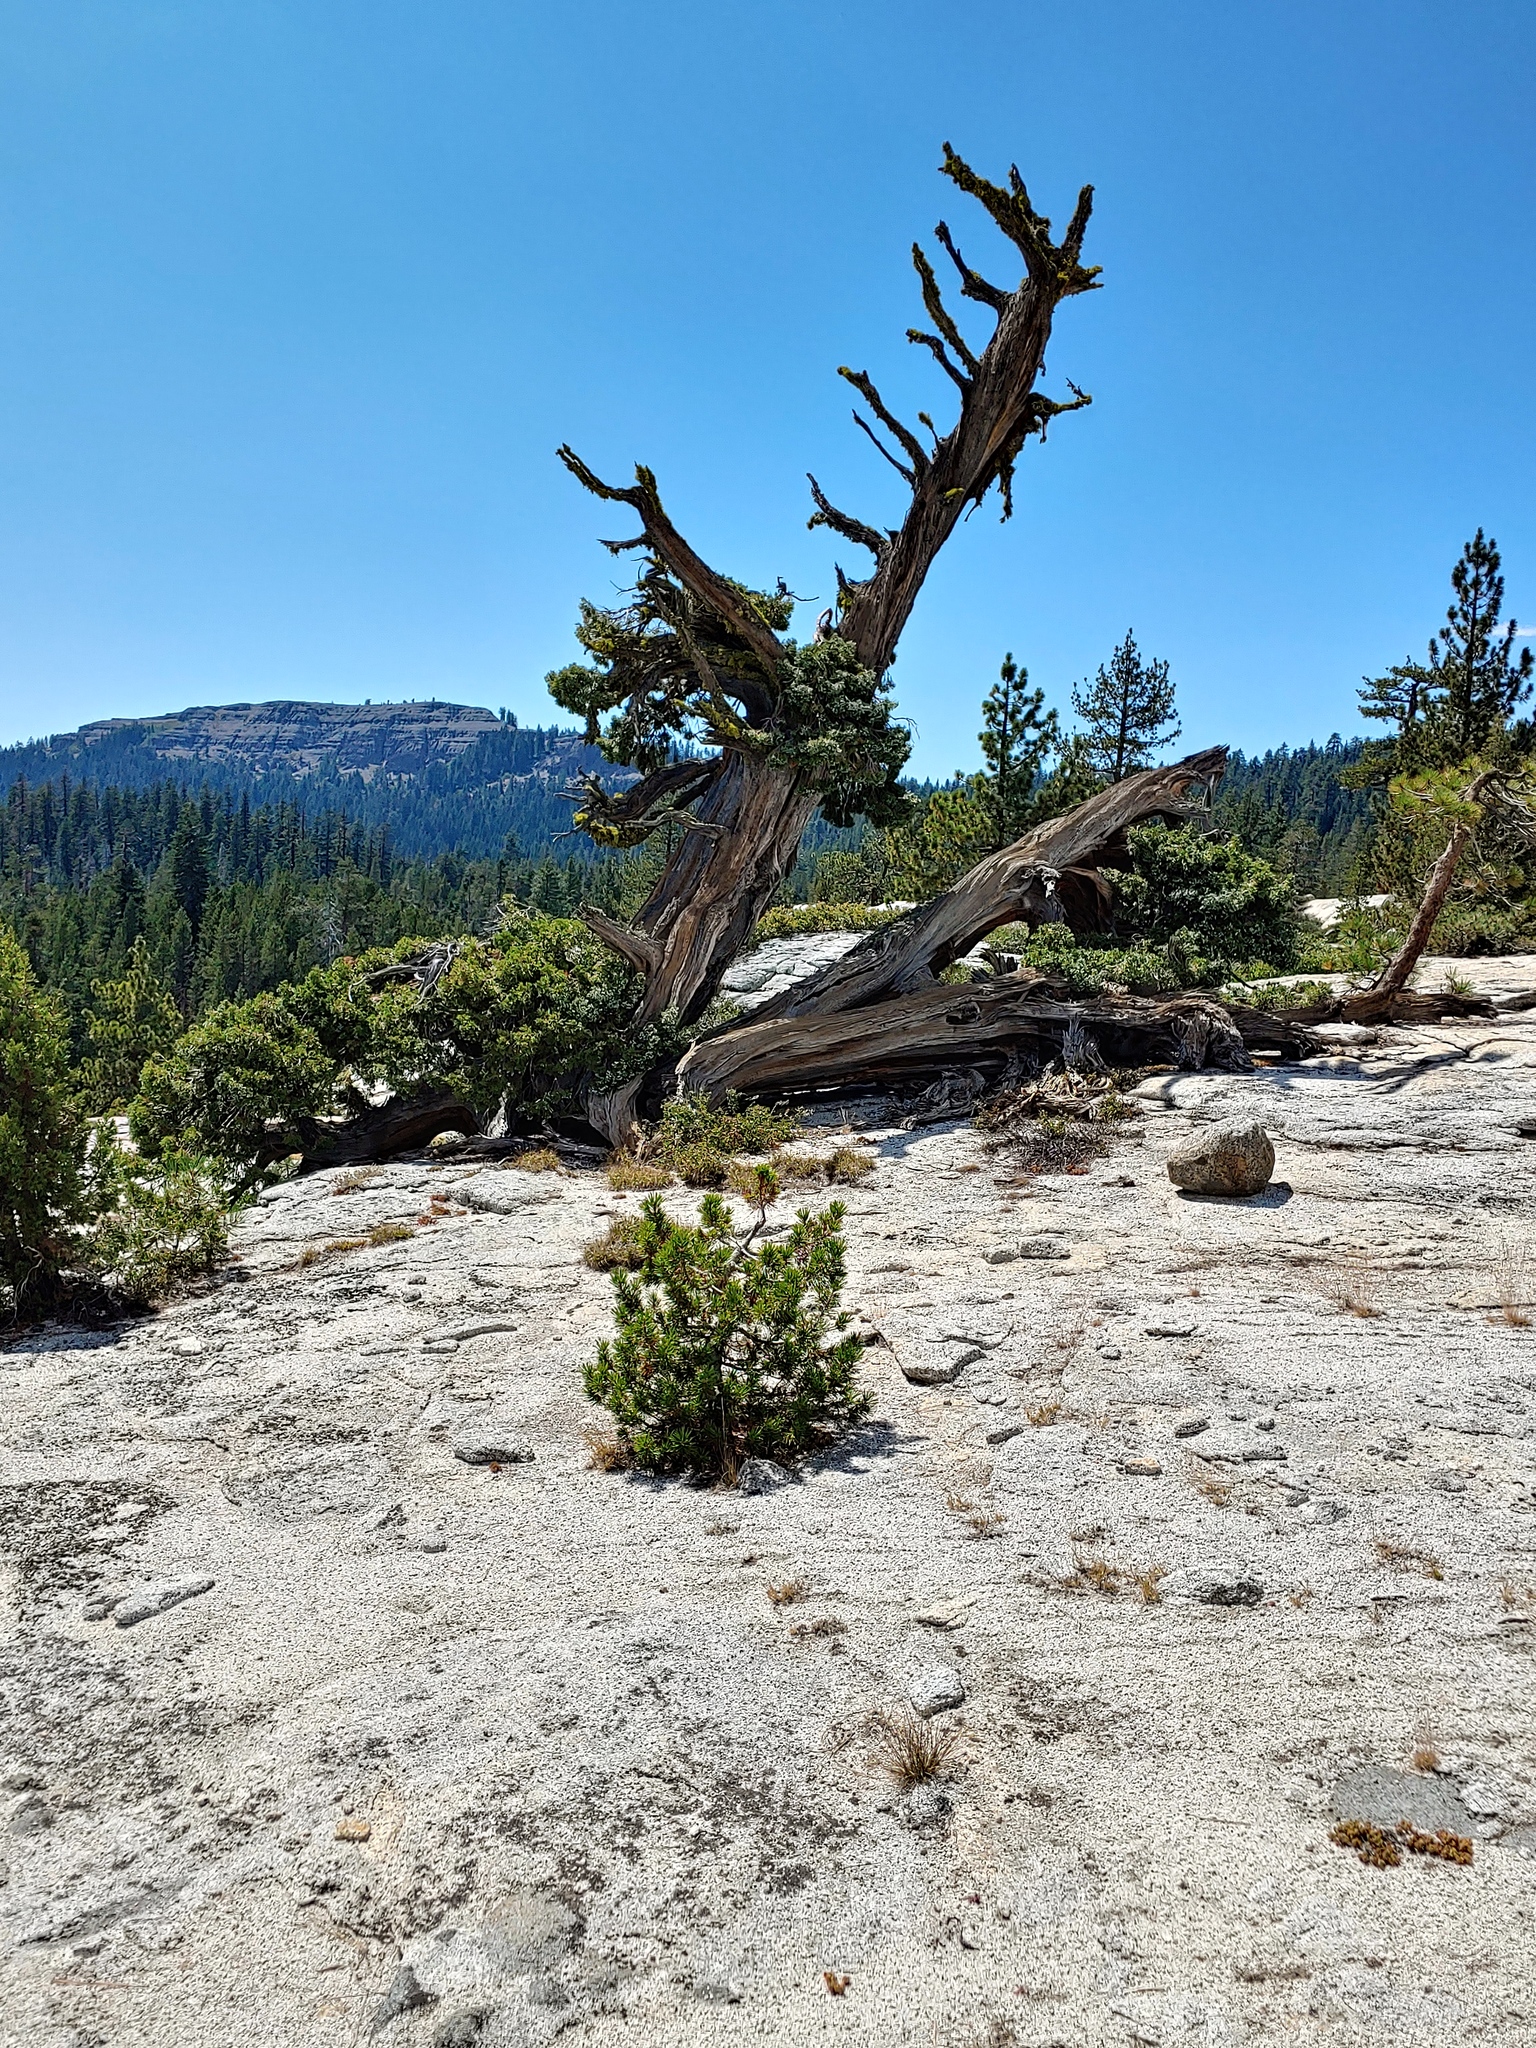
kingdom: Plantae
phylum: Tracheophyta
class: Pinopsida
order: Pinales
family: Cupressaceae
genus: Juniperus
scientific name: Juniperus occidentalis
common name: Western juniper
